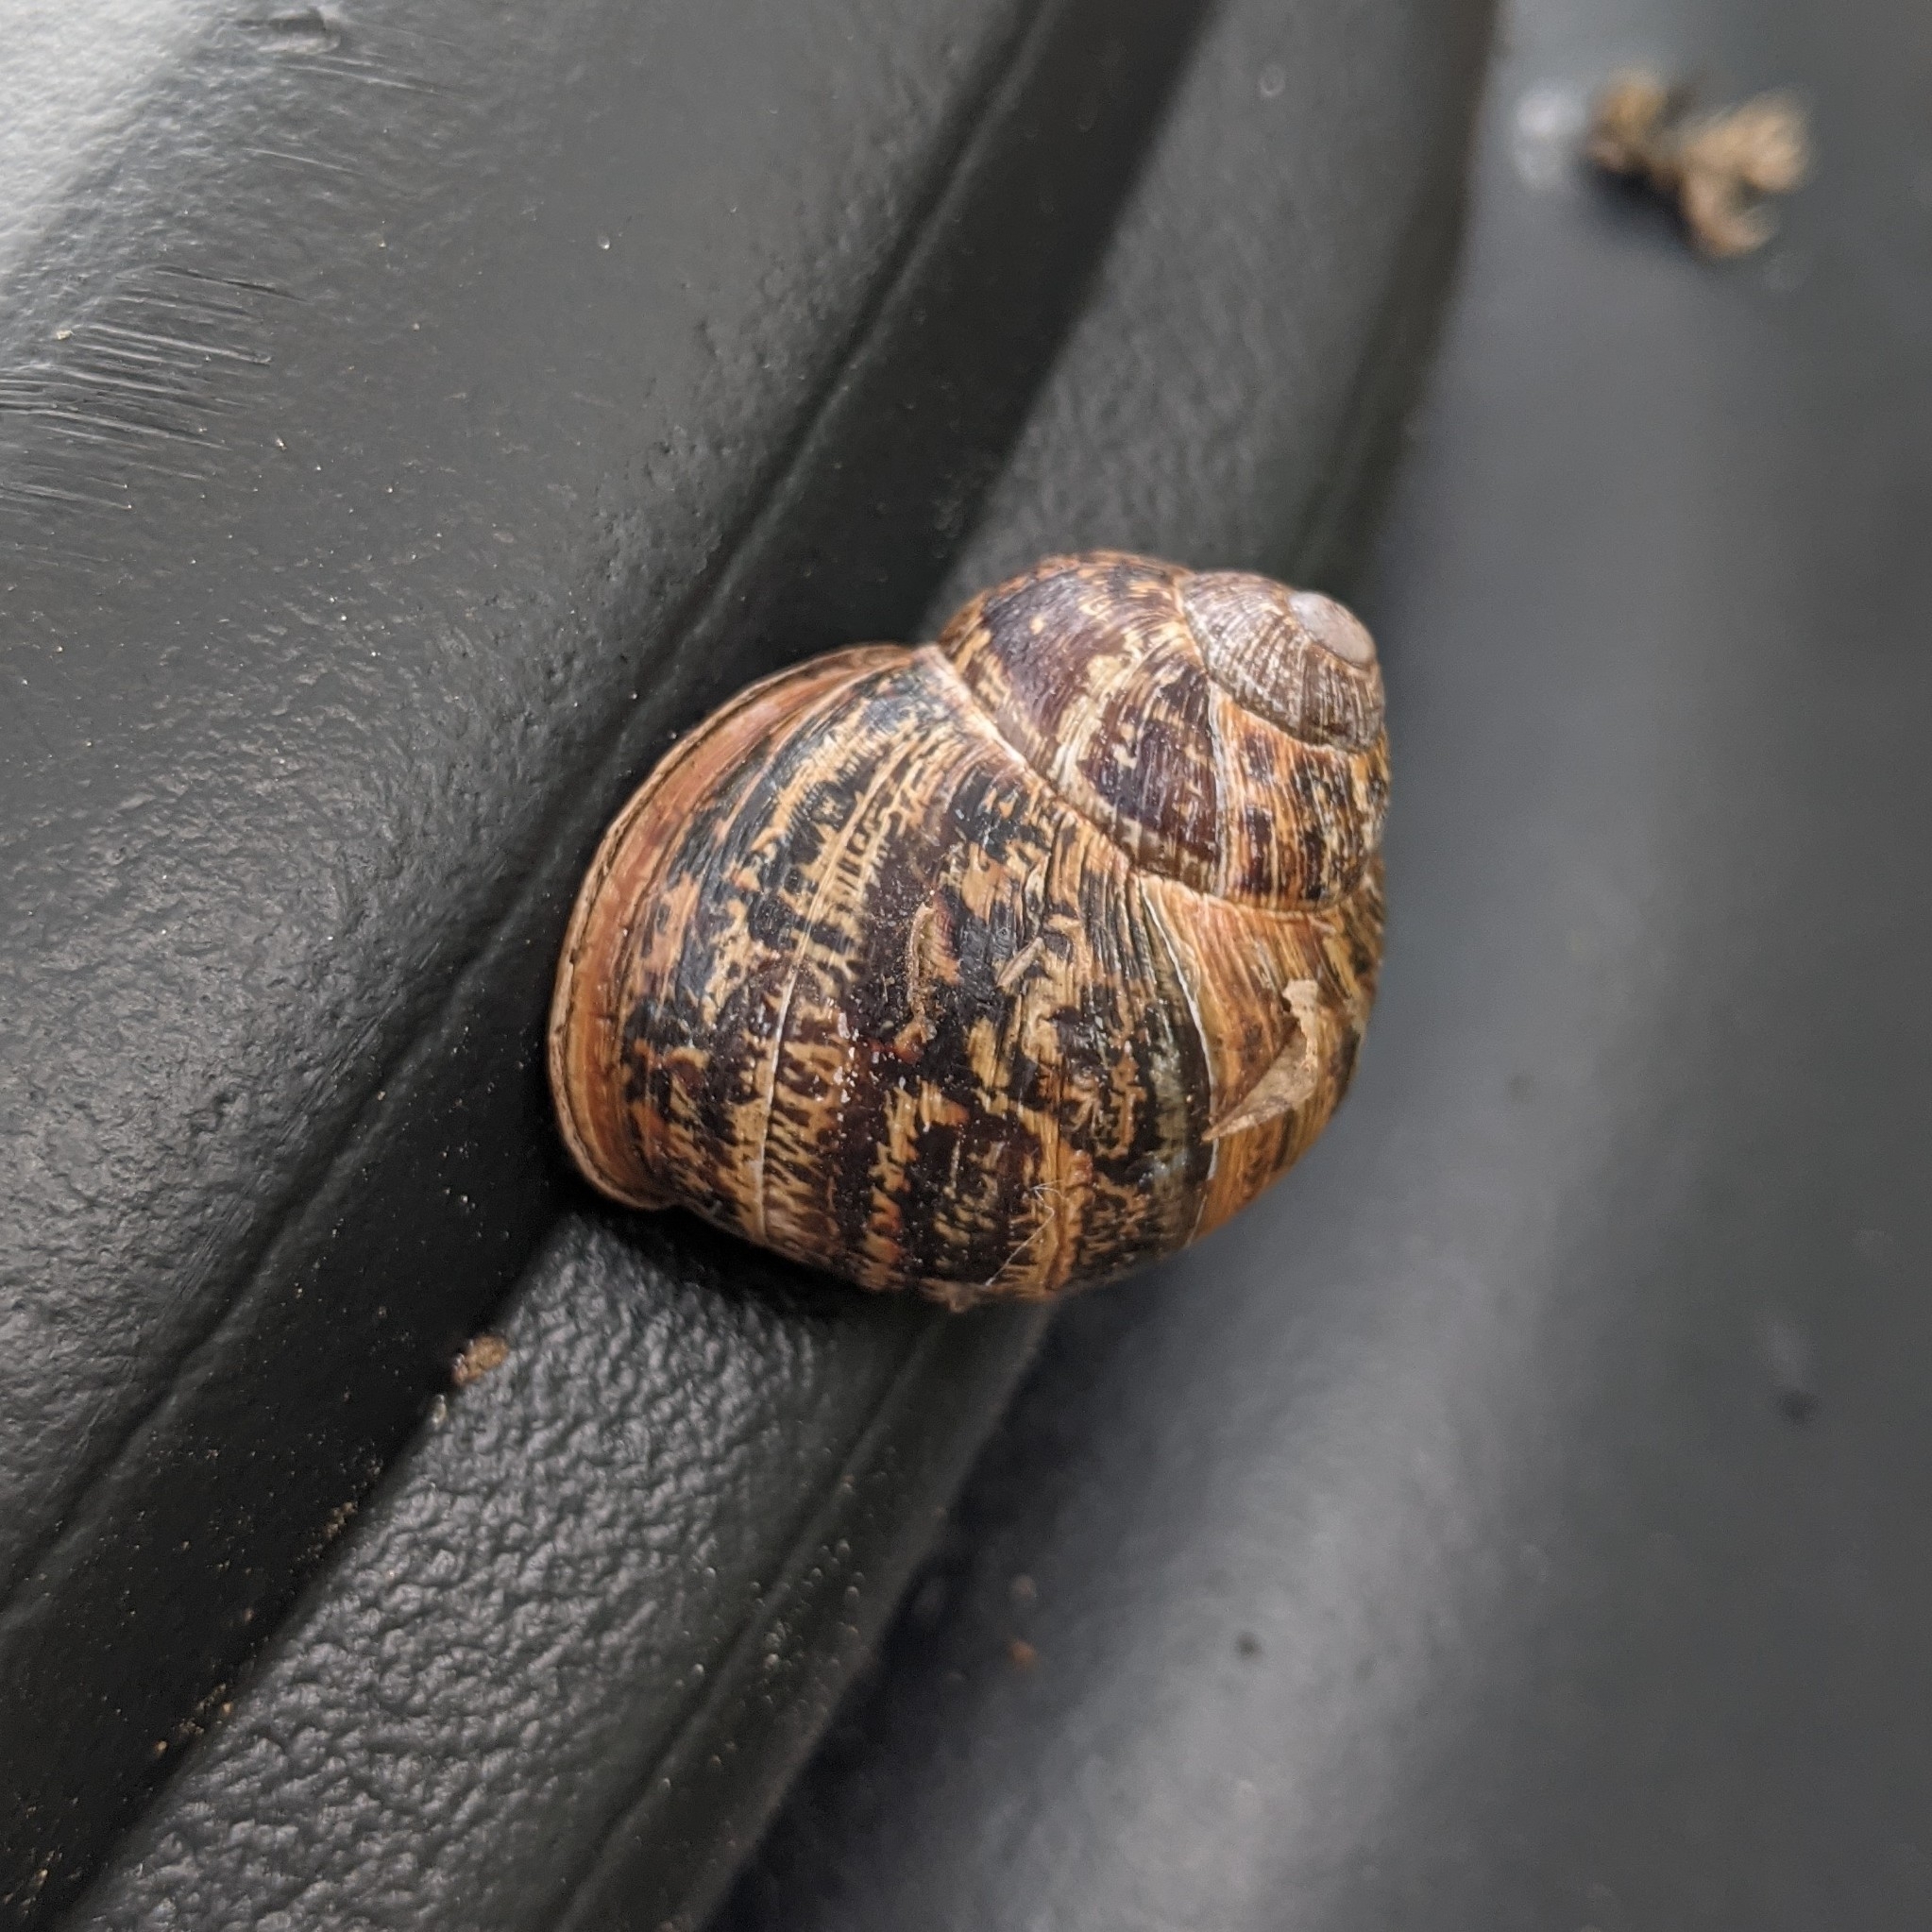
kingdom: Animalia
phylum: Mollusca
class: Gastropoda
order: Stylommatophora
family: Helicidae
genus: Cornu
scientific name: Cornu aspersum
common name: Brown garden snail
